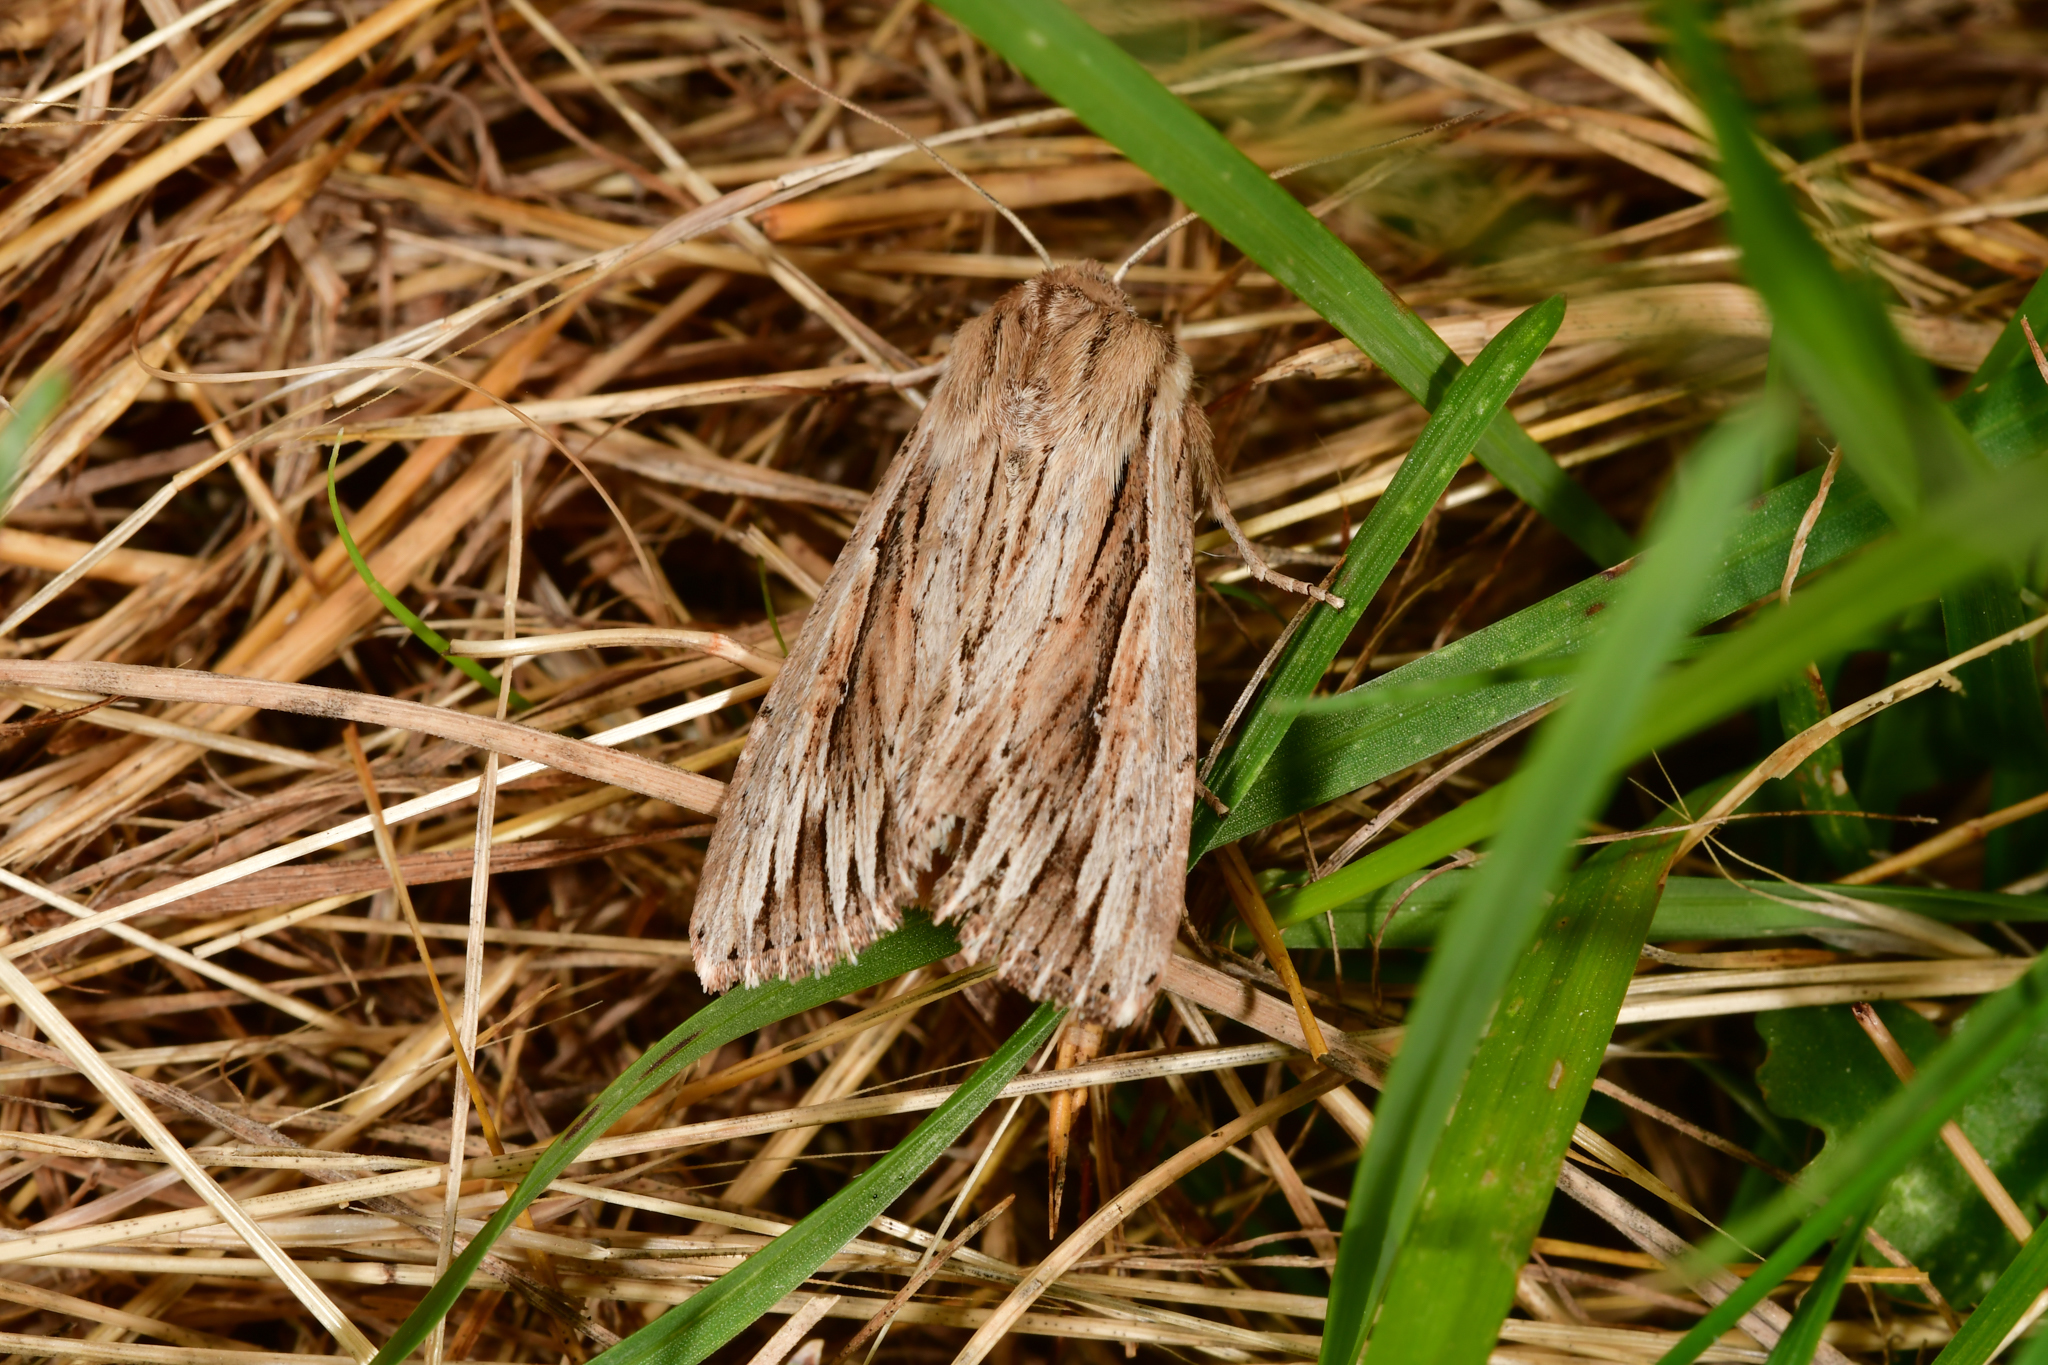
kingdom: Animalia
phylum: Arthropoda
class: Insecta
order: Lepidoptera
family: Noctuidae
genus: Persectania
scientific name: Persectania aversa
